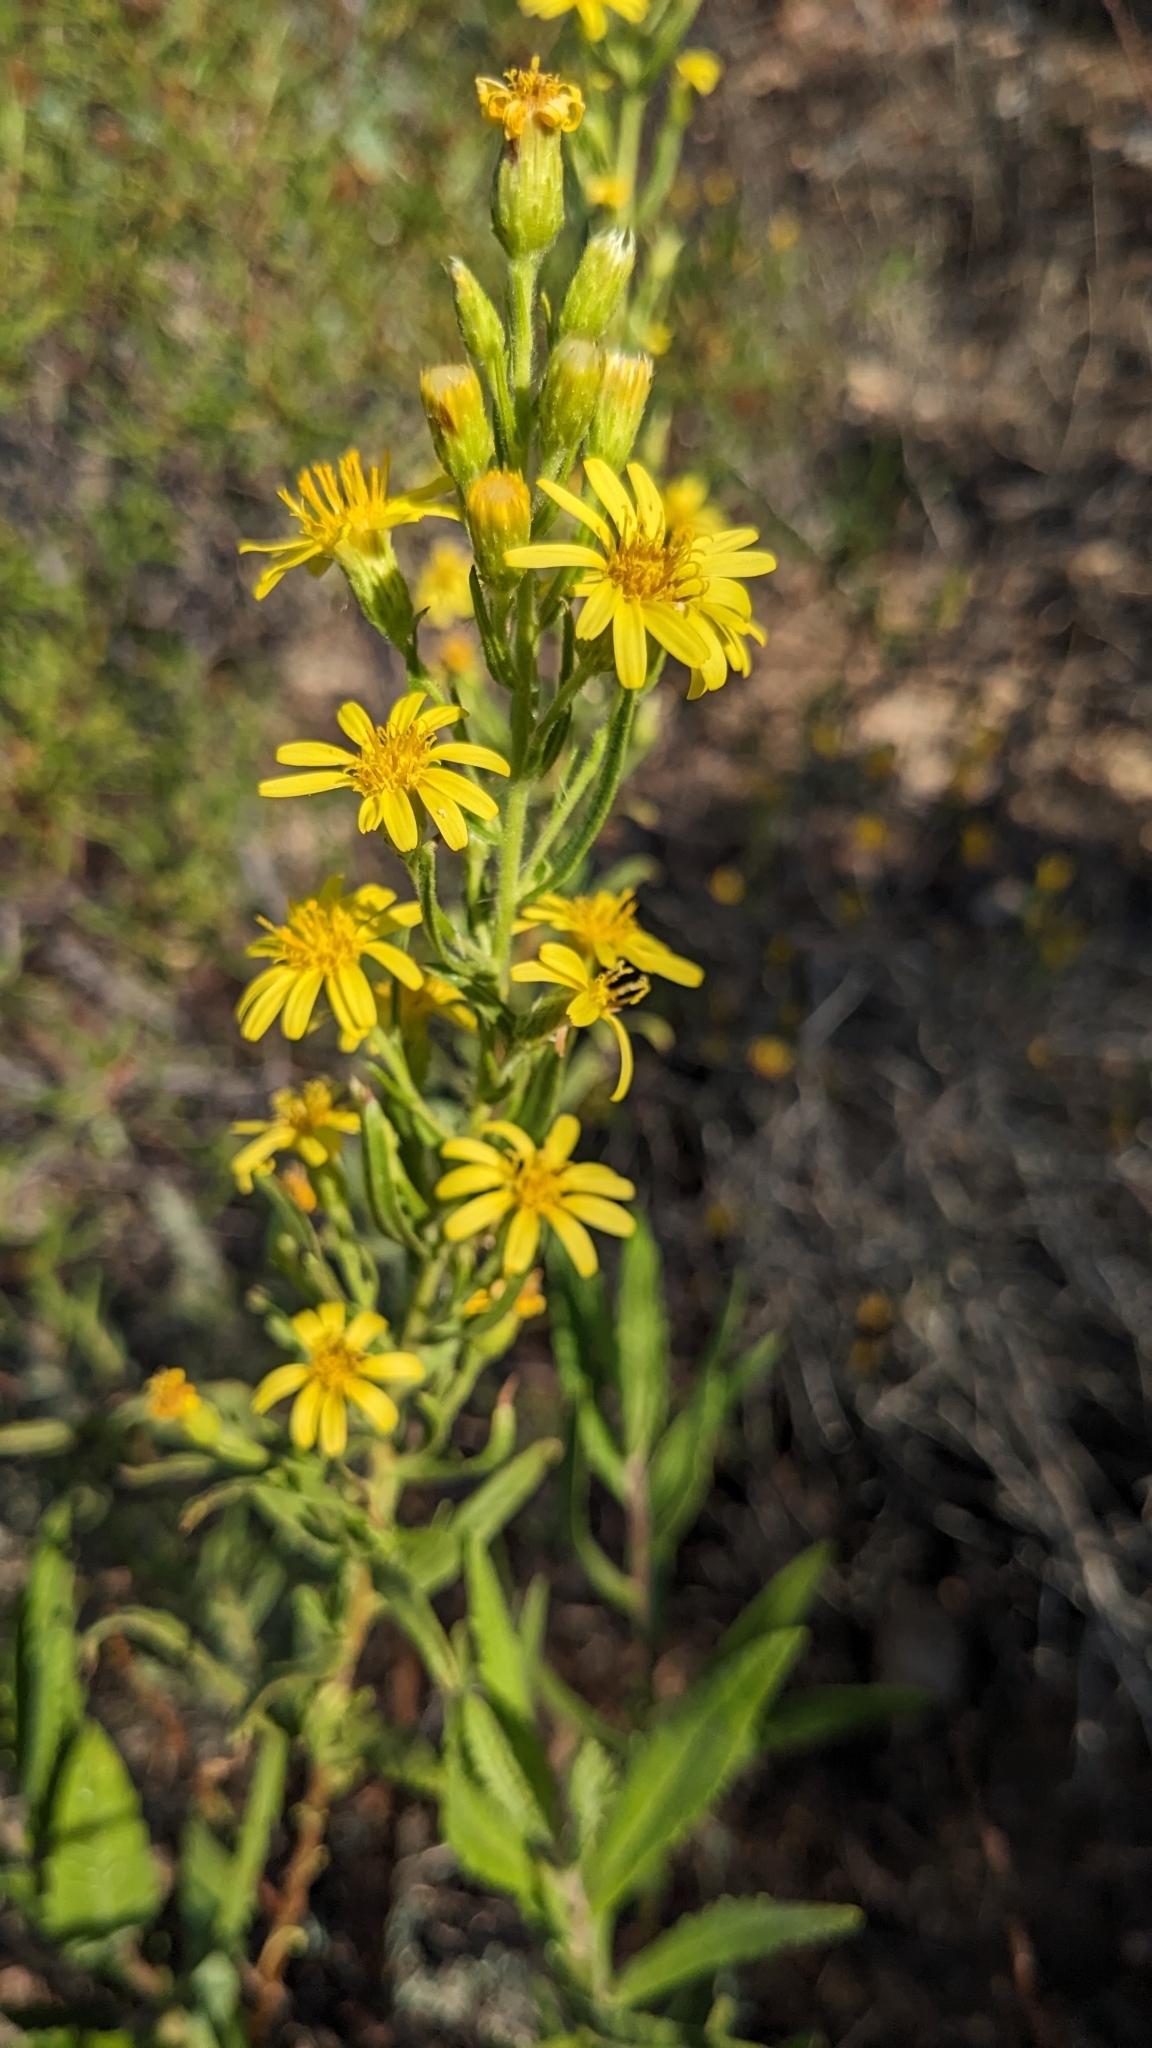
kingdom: Plantae
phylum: Tracheophyta
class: Magnoliopsida
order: Asterales
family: Asteraceae
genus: Dittrichia
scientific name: Dittrichia viscosa
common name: Woody fleabane
